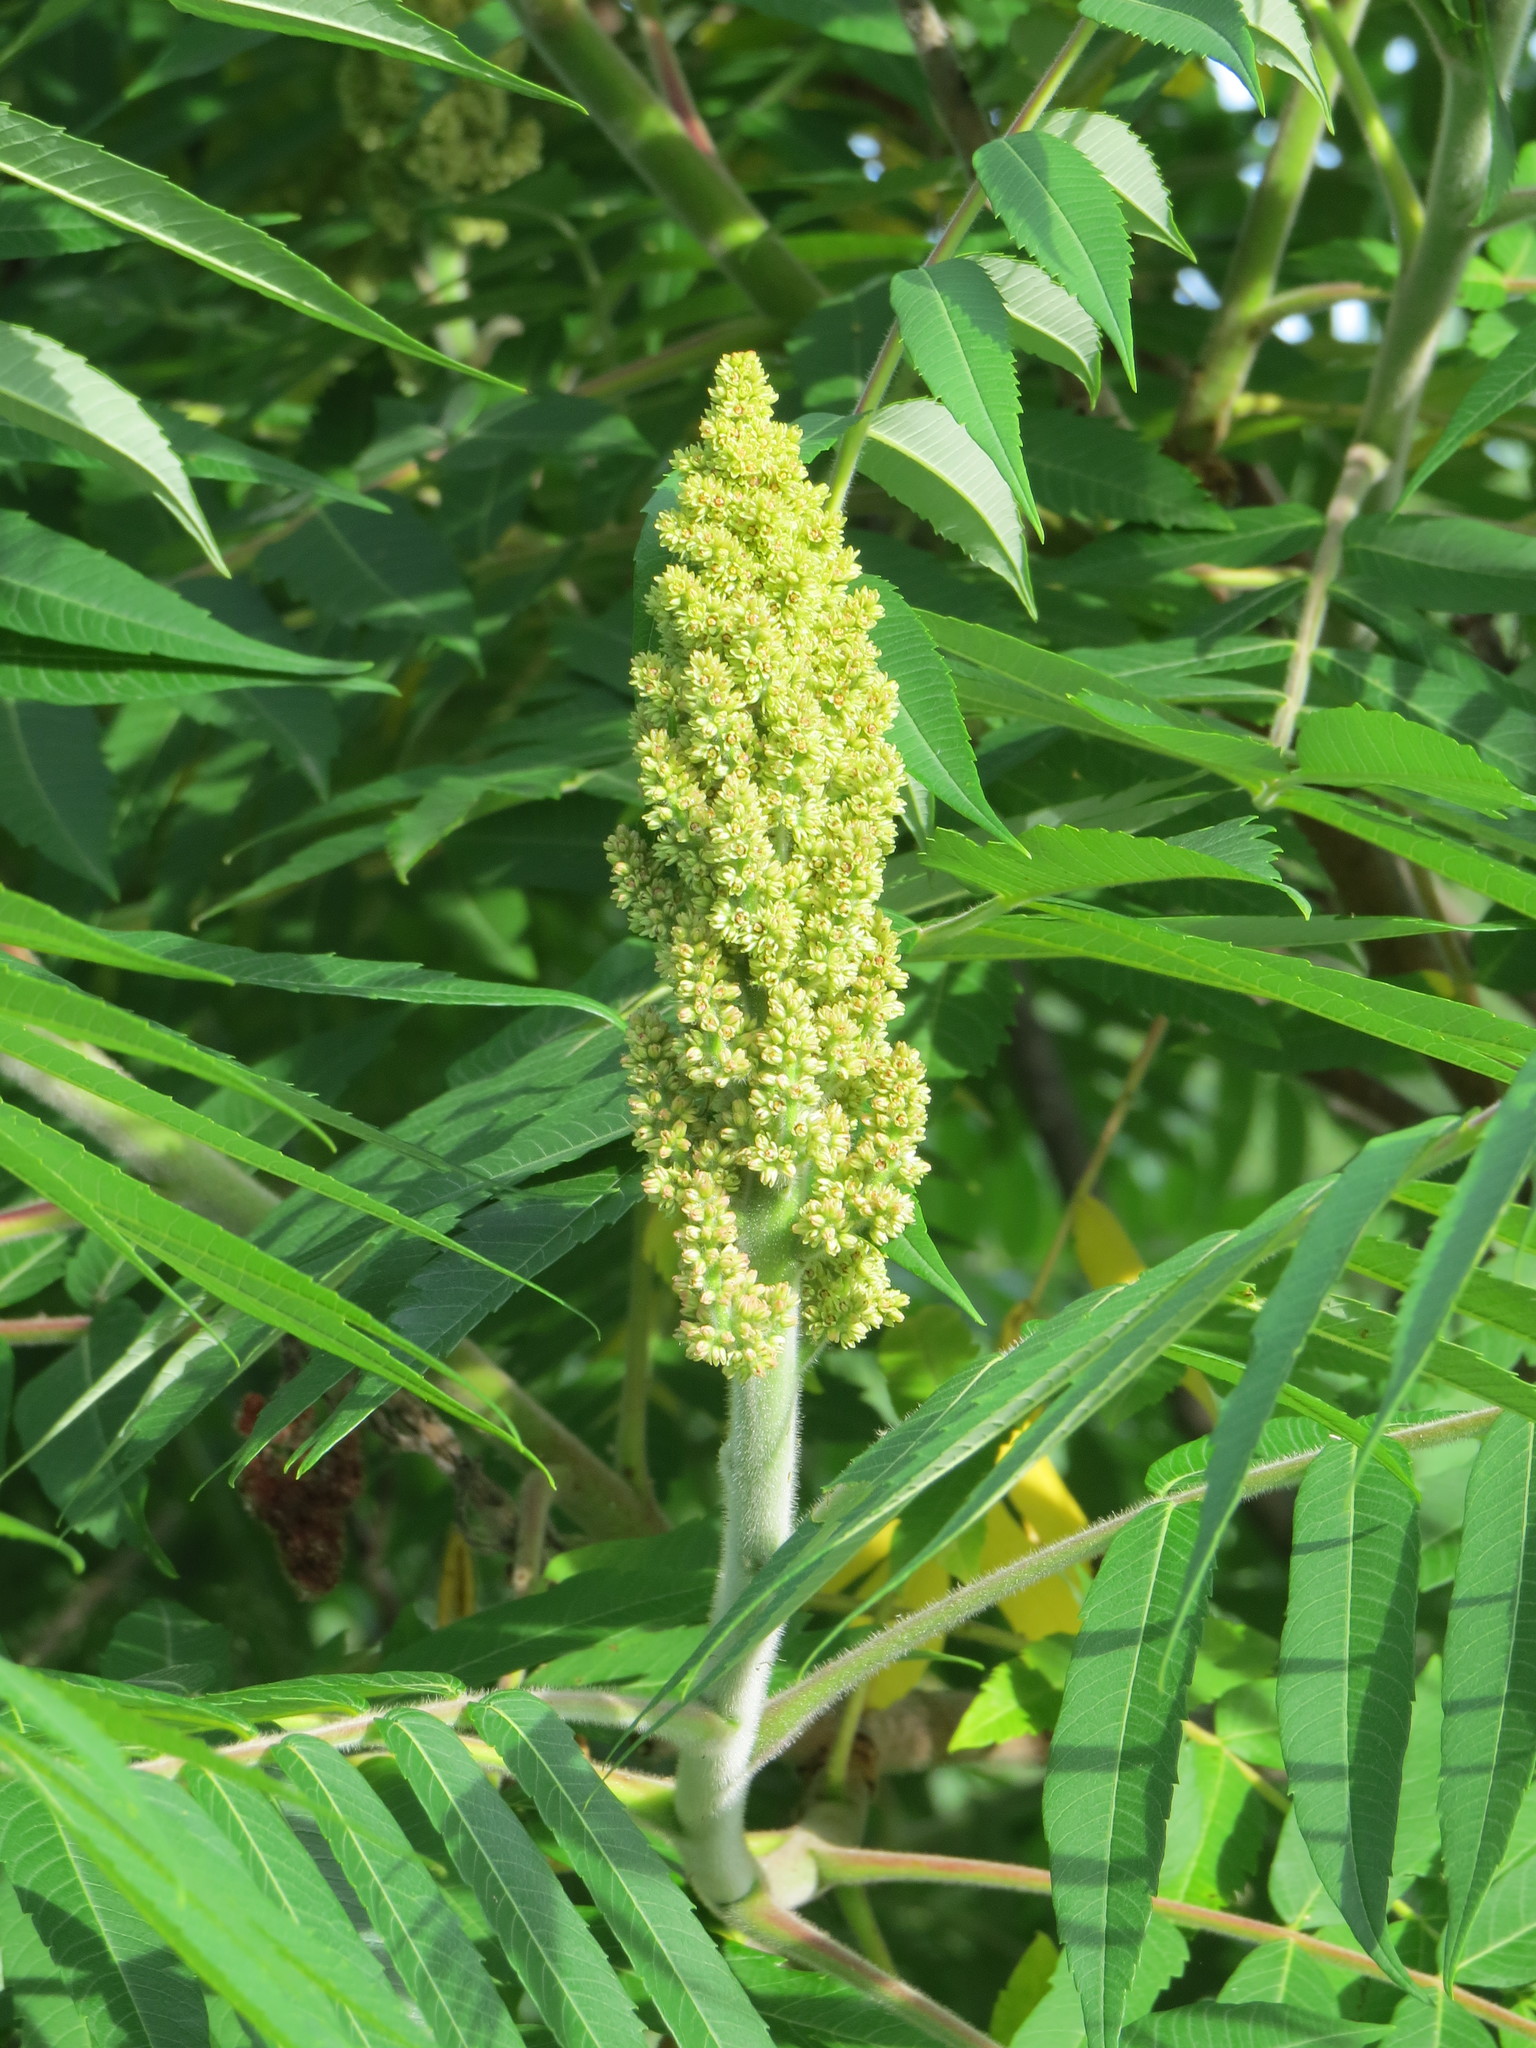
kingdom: Plantae
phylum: Tracheophyta
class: Magnoliopsida
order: Sapindales
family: Anacardiaceae
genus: Rhus
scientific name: Rhus typhina
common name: Staghorn sumac
